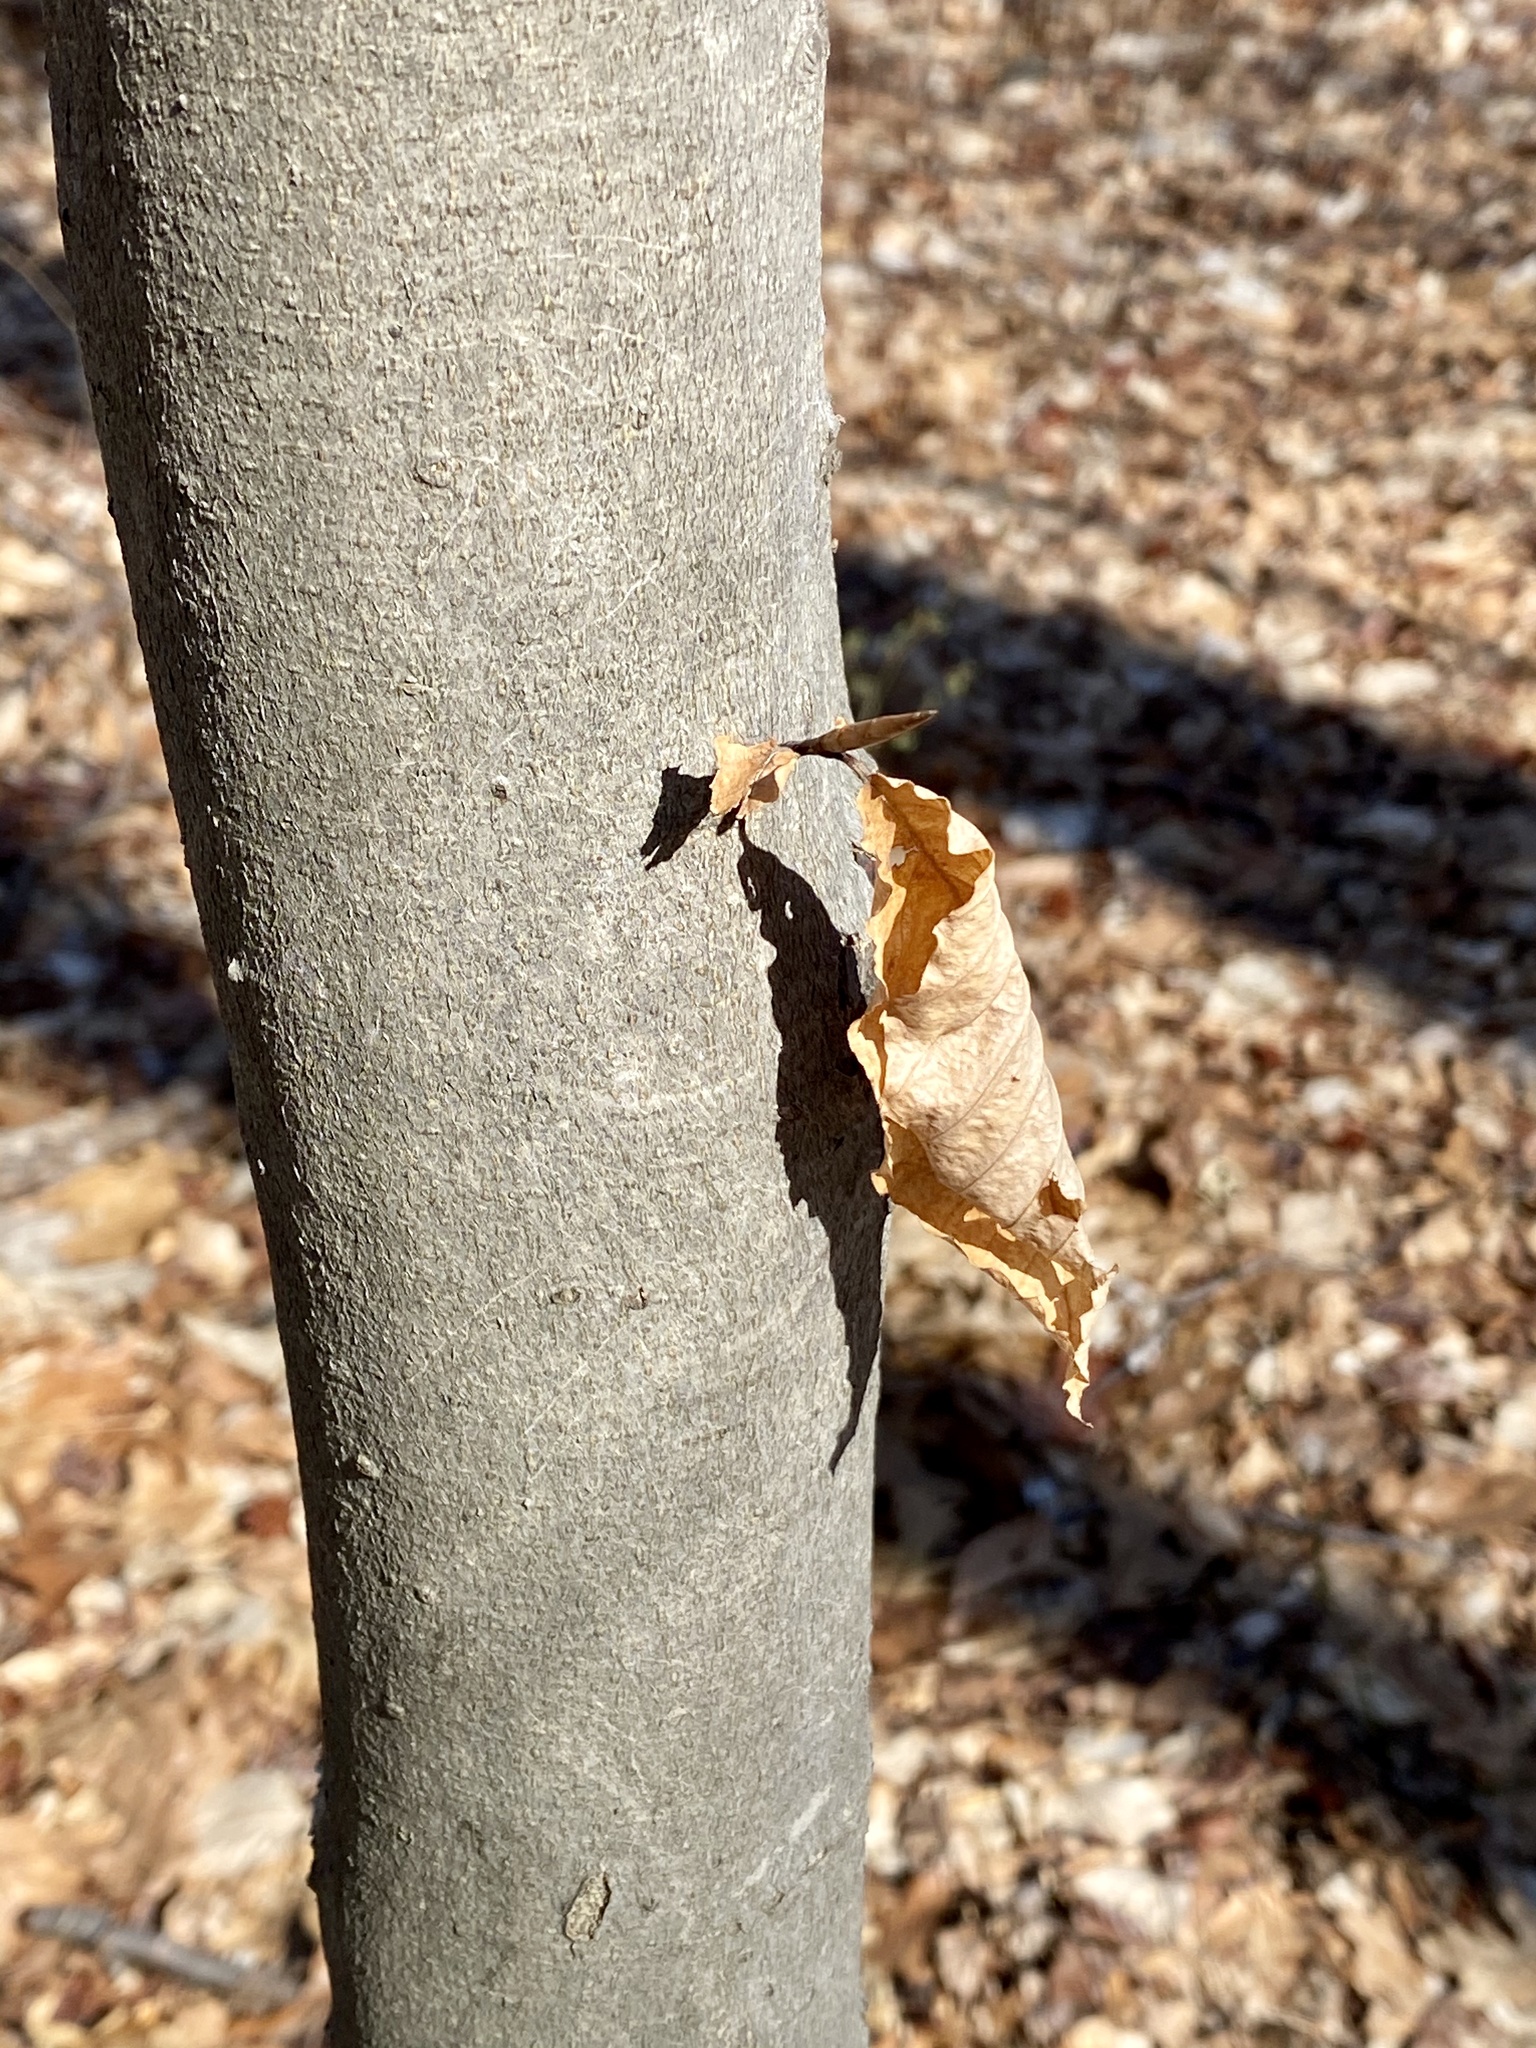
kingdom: Plantae
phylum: Tracheophyta
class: Magnoliopsida
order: Fagales
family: Fagaceae
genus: Fagus
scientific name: Fagus grandifolia
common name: American beech
